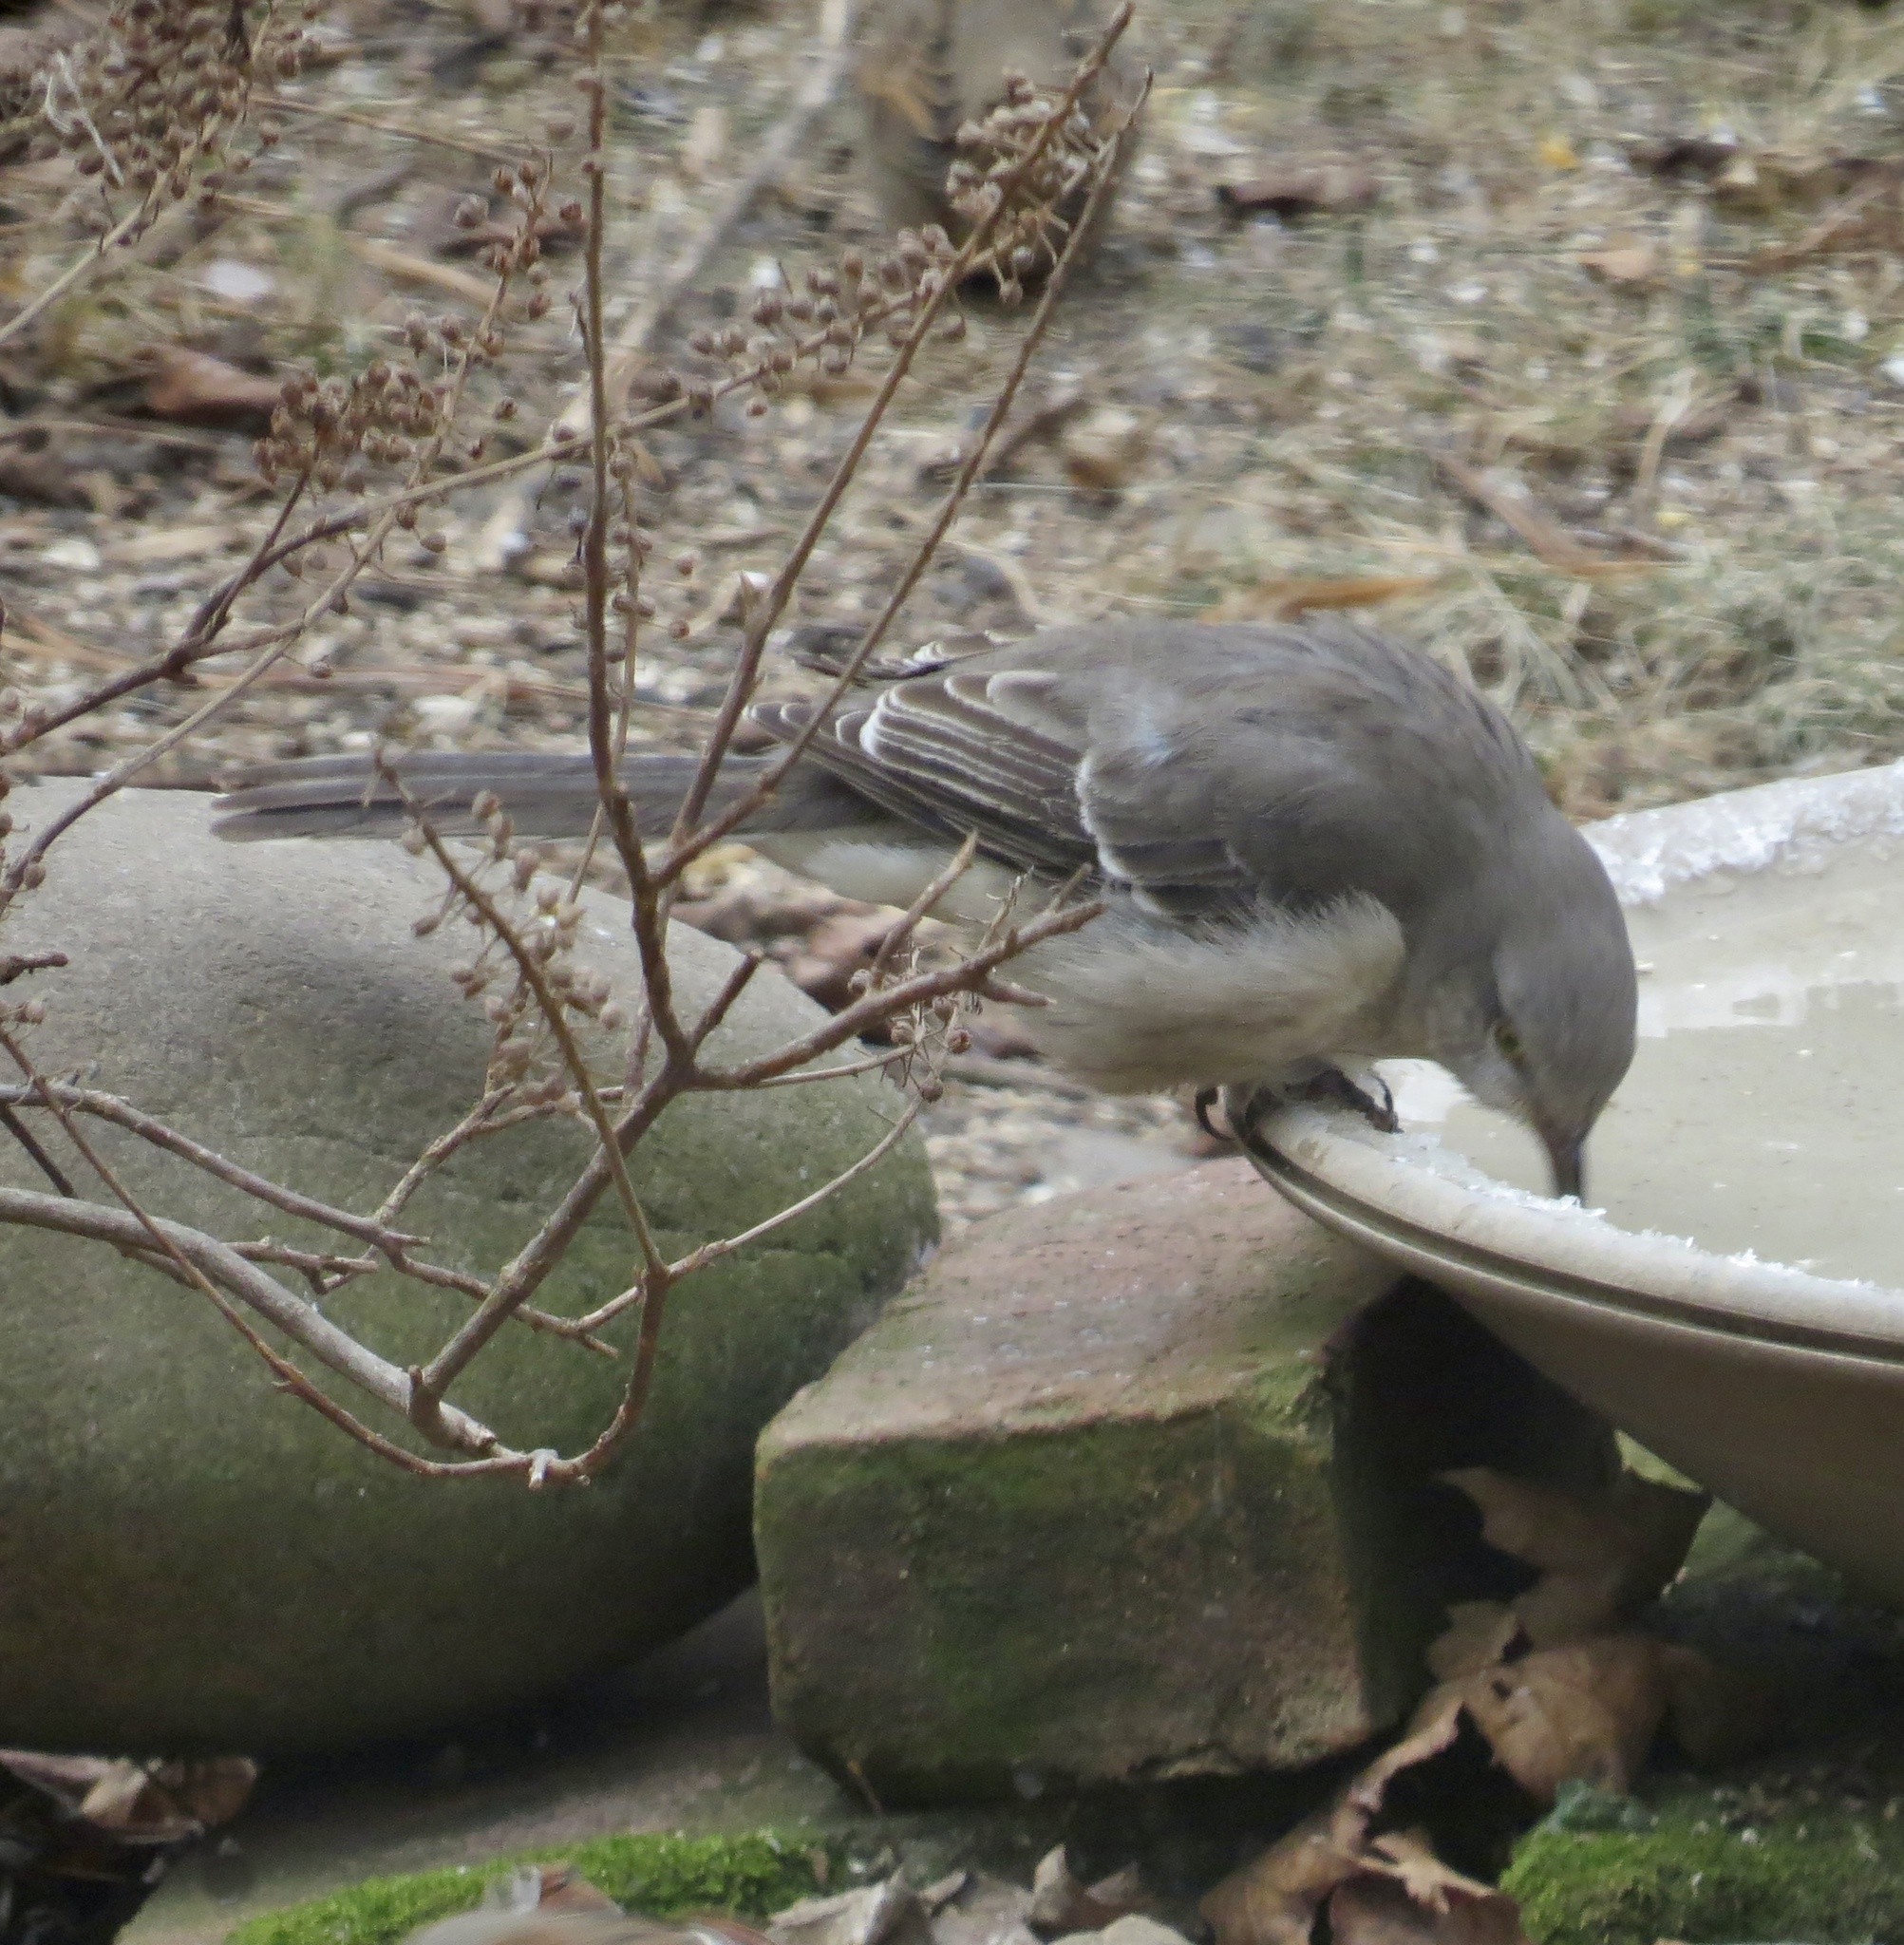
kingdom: Animalia
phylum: Chordata
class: Aves
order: Passeriformes
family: Mimidae
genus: Mimus
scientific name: Mimus polyglottos
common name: Northern mockingbird
